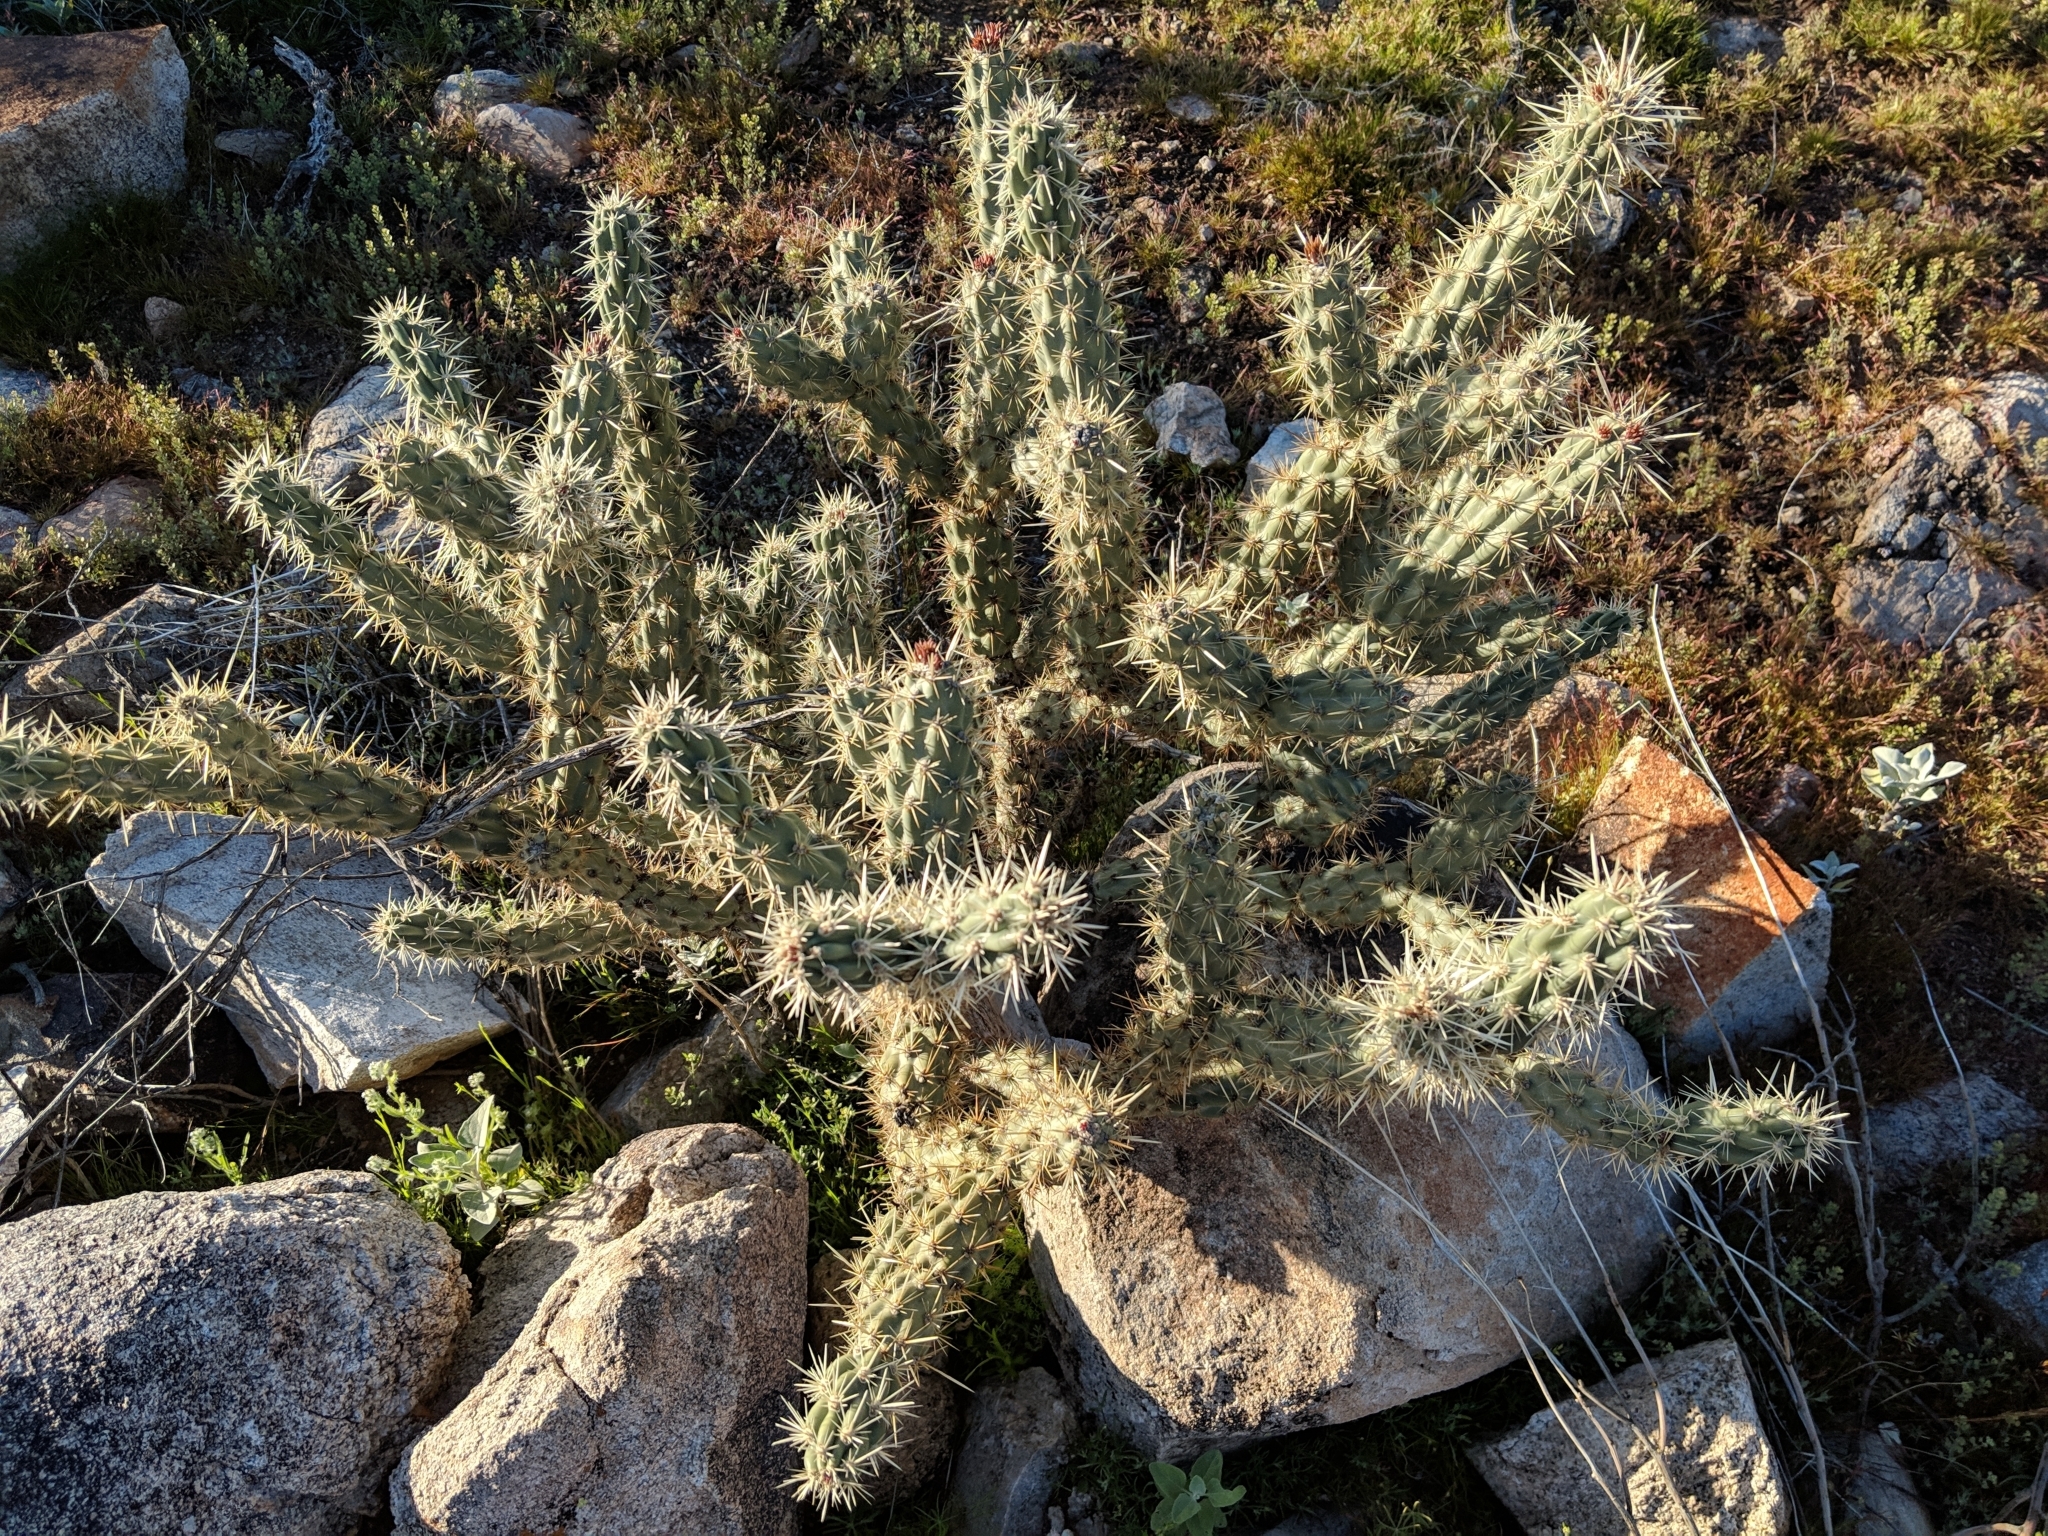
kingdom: Plantae
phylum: Tracheophyta
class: Magnoliopsida
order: Caryophyllales
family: Cactaceae
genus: Cylindropuntia
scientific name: Cylindropuntia acanthocarpa
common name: Buckhorn cholla
